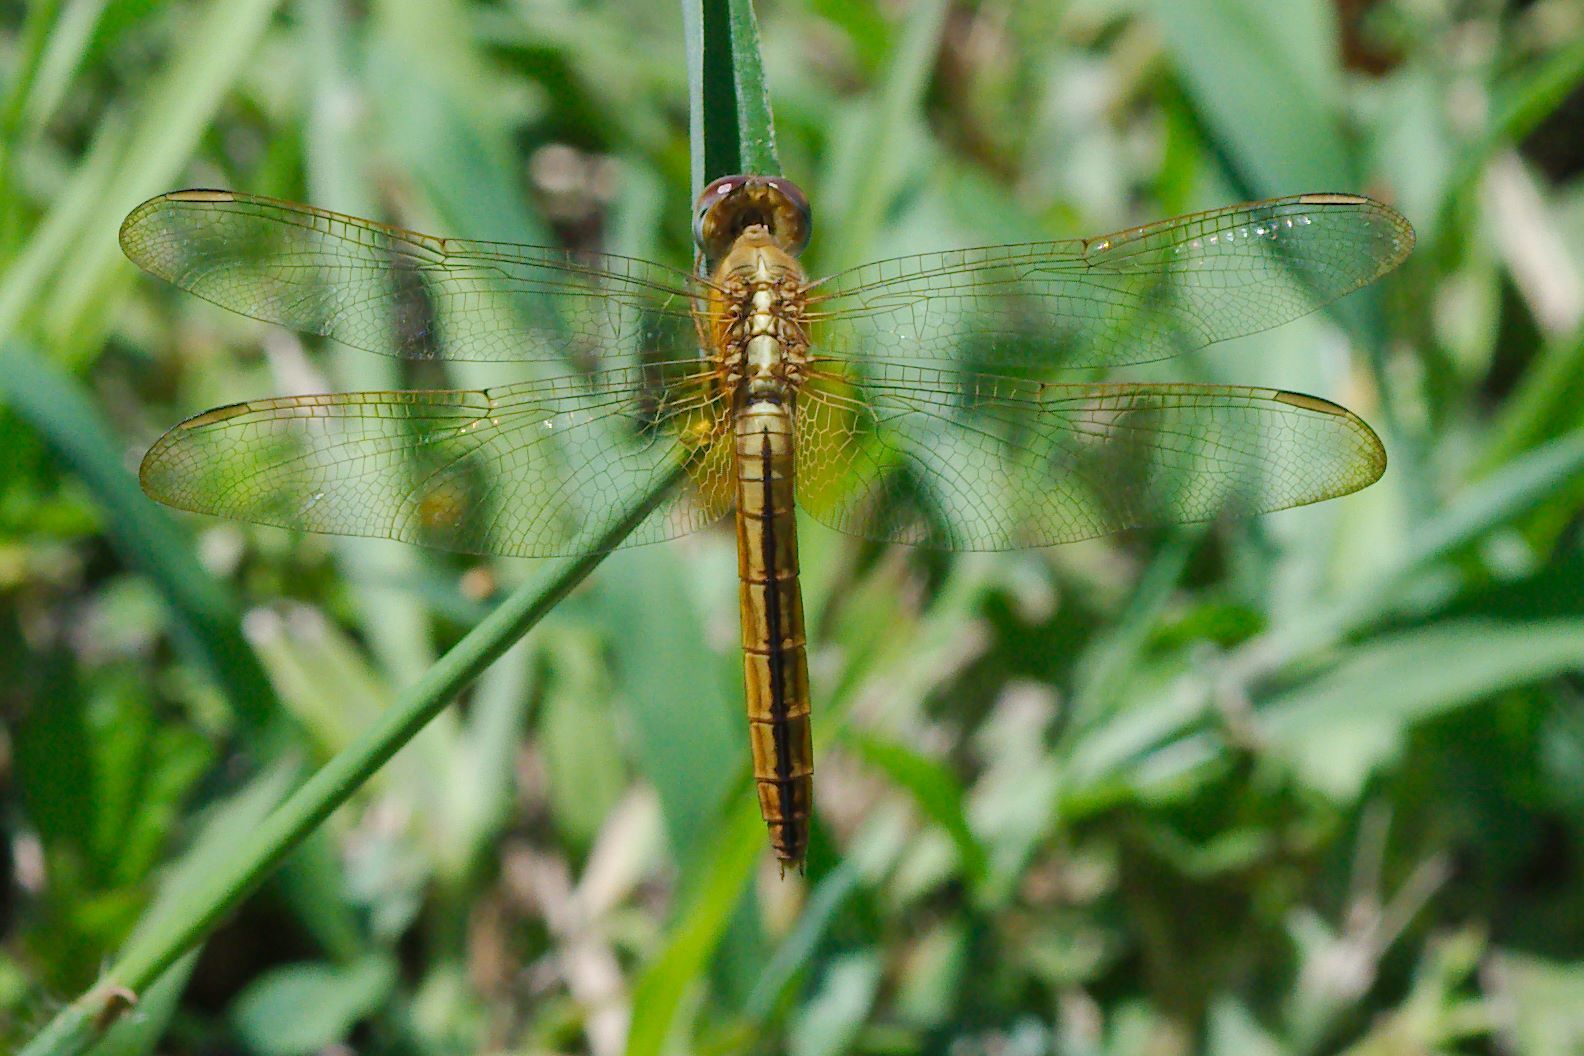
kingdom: Animalia
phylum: Arthropoda
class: Insecta
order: Odonata
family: Libellulidae
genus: Crocothemis
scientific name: Crocothemis servilia
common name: Scarlet skimmer
